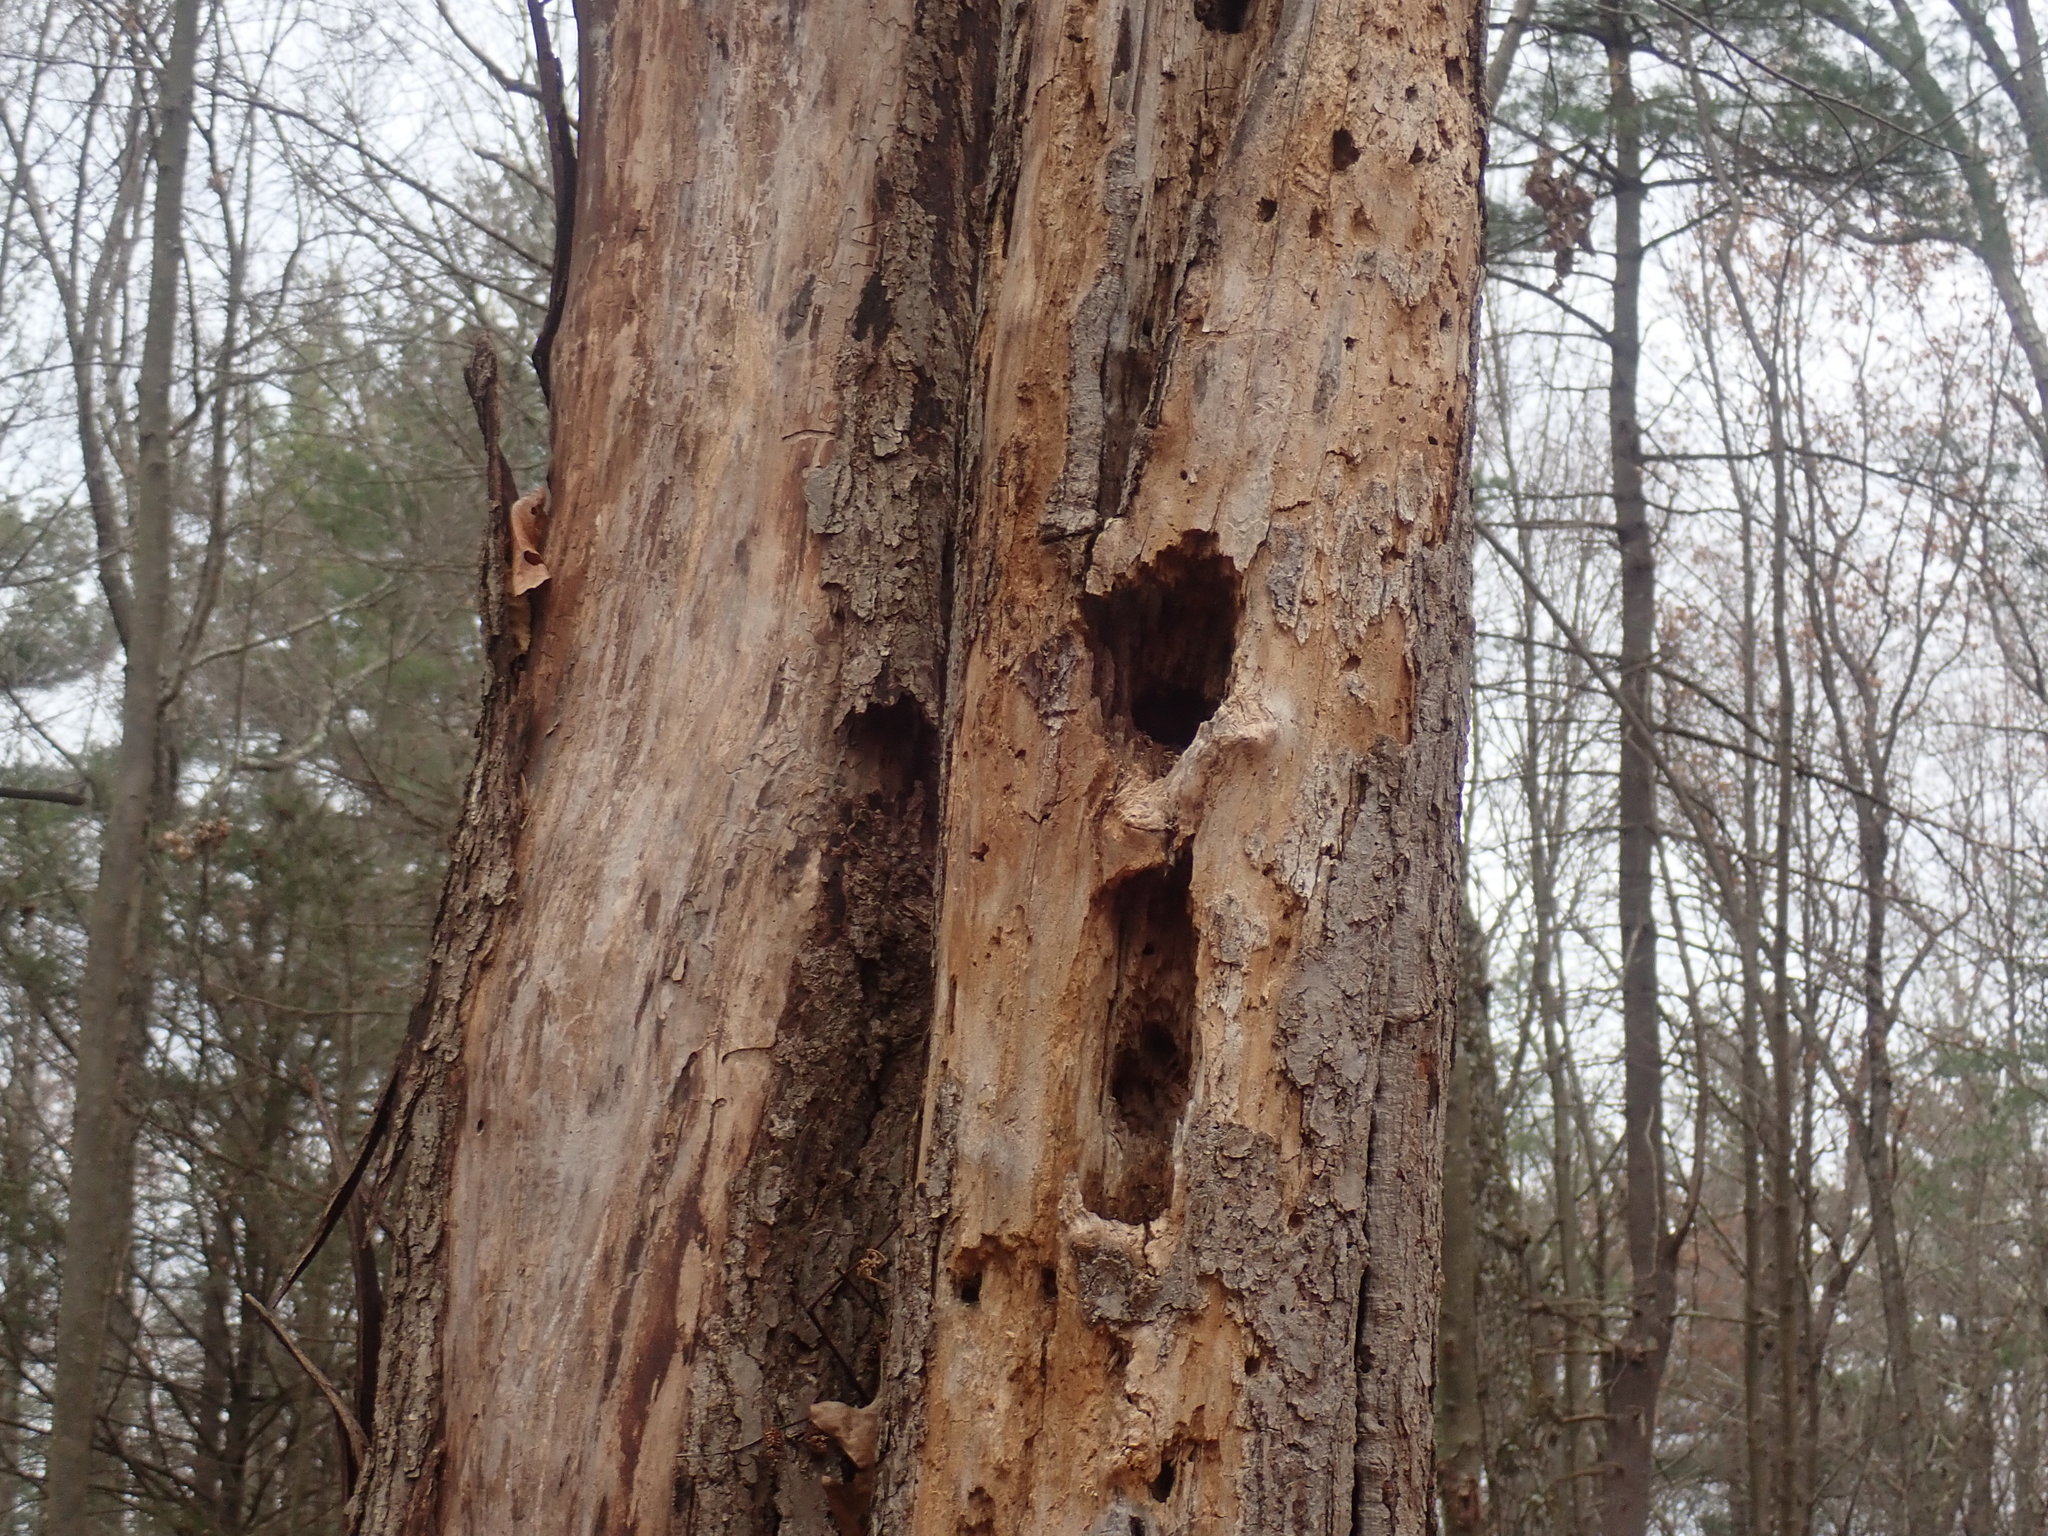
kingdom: Animalia
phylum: Chordata
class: Aves
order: Piciformes
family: Picidae
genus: Dryocopus
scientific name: Dryocopus pileatus
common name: Pileated woodpecker
